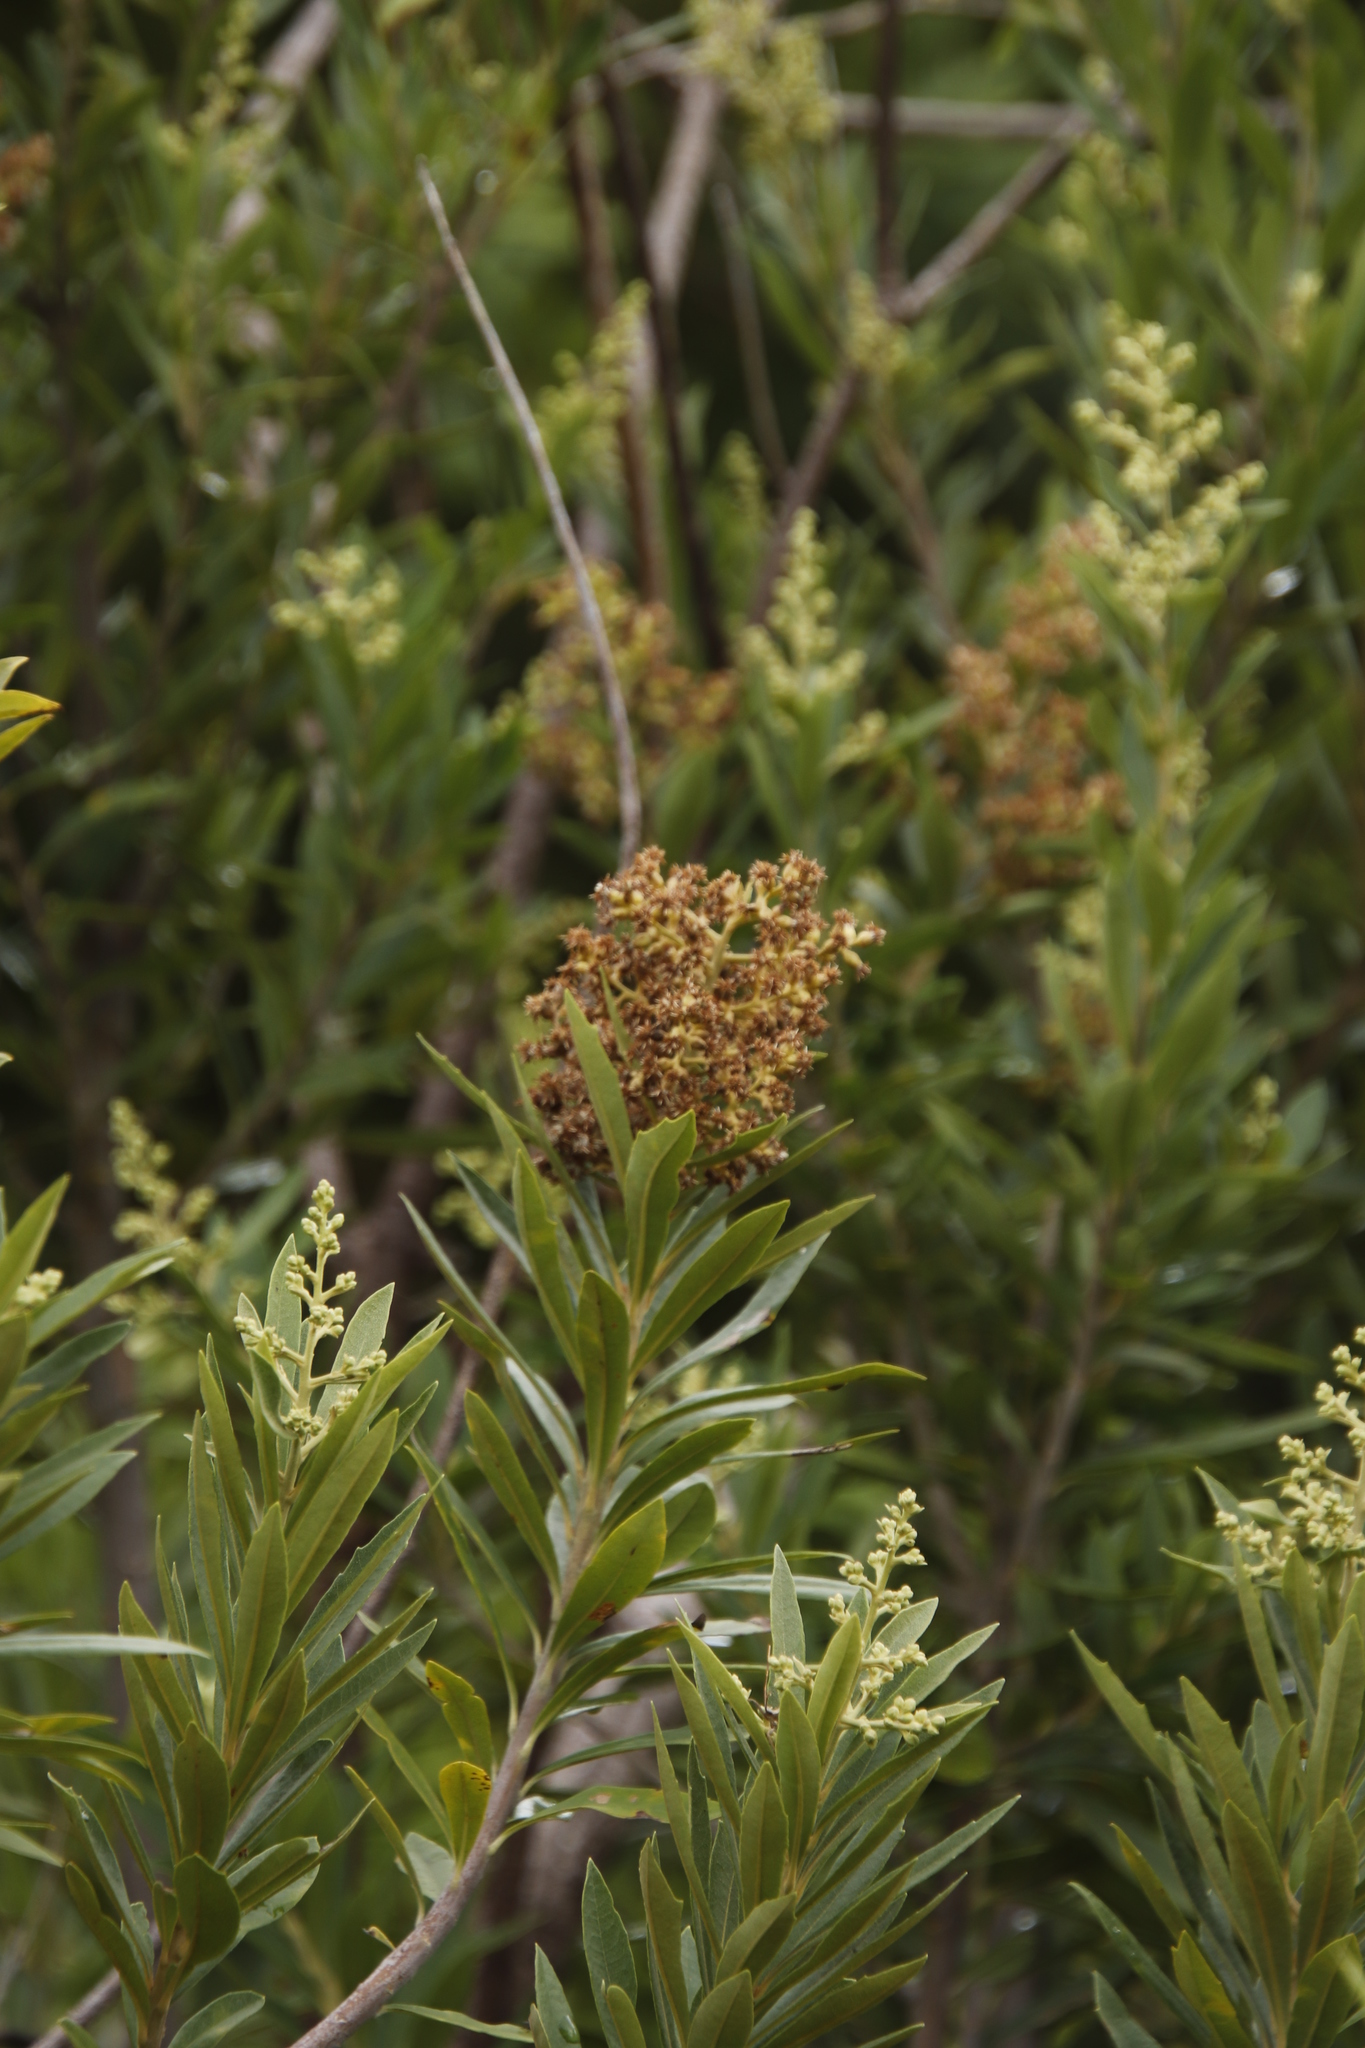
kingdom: Plantae
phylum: Tracheophyta
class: Magnoliopsida
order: Asterales
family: Asteraceae
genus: Brachylaena
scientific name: Brachylaena neriifolia
